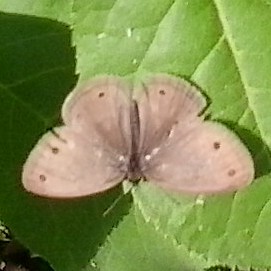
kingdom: Animalia
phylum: Arthropoda
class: Insecta
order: Lepidoptera
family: Nymphalidae
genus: Euptychia
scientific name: Euptychia cymela
